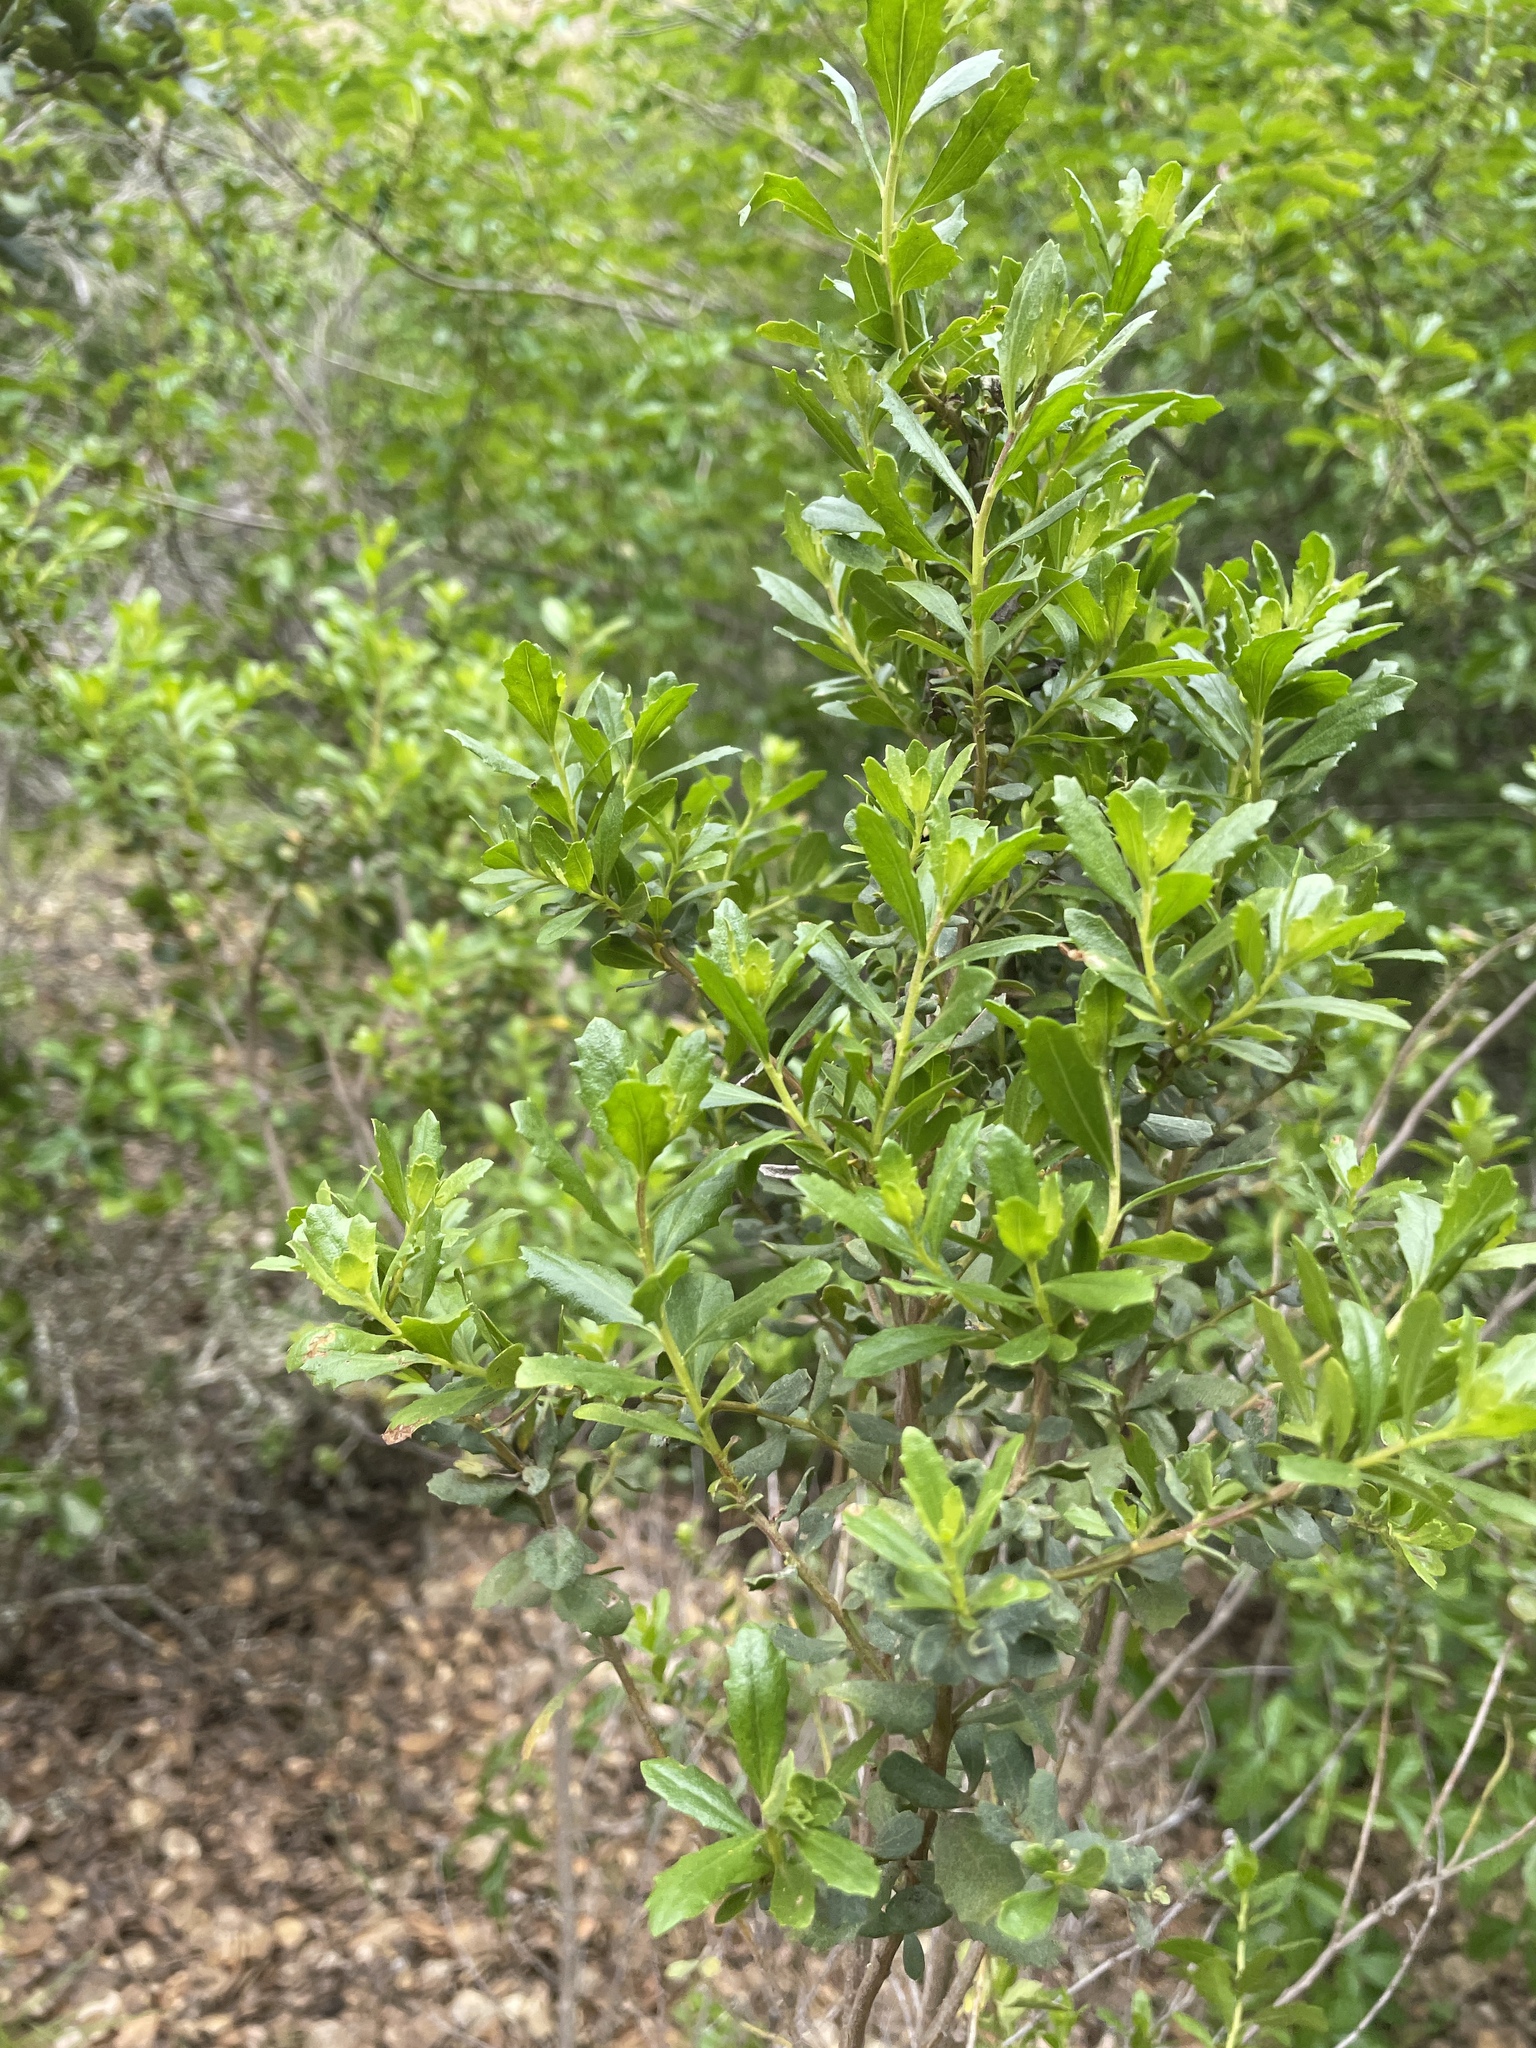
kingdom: Plantae
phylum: Tracheophyta
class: Magnoliopsida
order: Asterales
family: Asteraceae
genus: Baccharis
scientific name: Baccharis pilularis
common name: Coyotebrush
